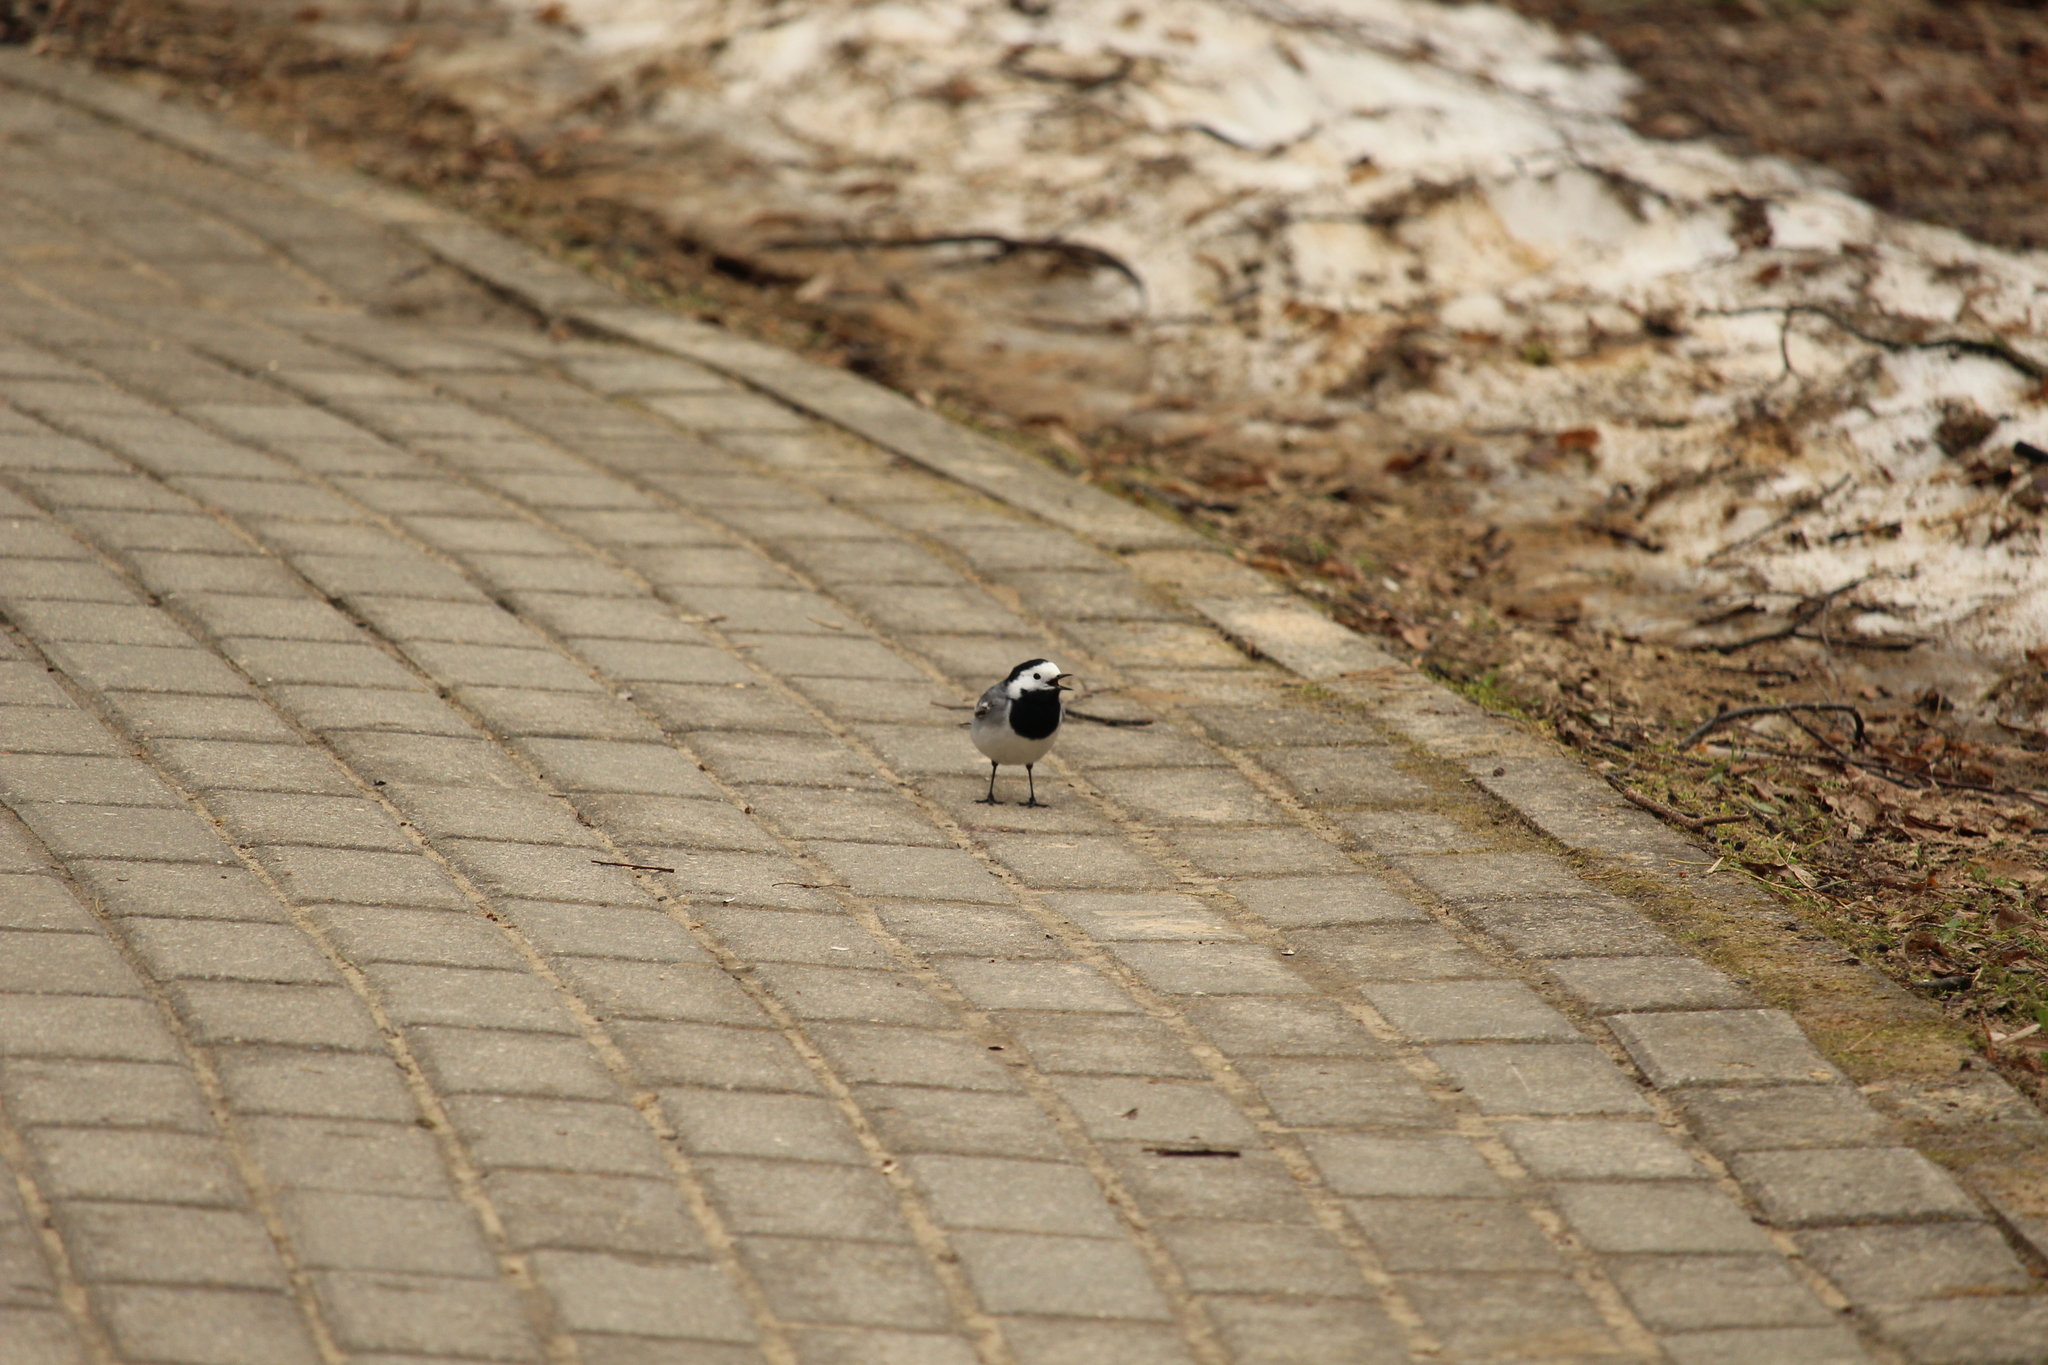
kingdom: Animalia
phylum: Chordata
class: Aves
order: Passeriformes
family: Motacillidae
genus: Motacilla
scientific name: Motacilla alba
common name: White wagtail
